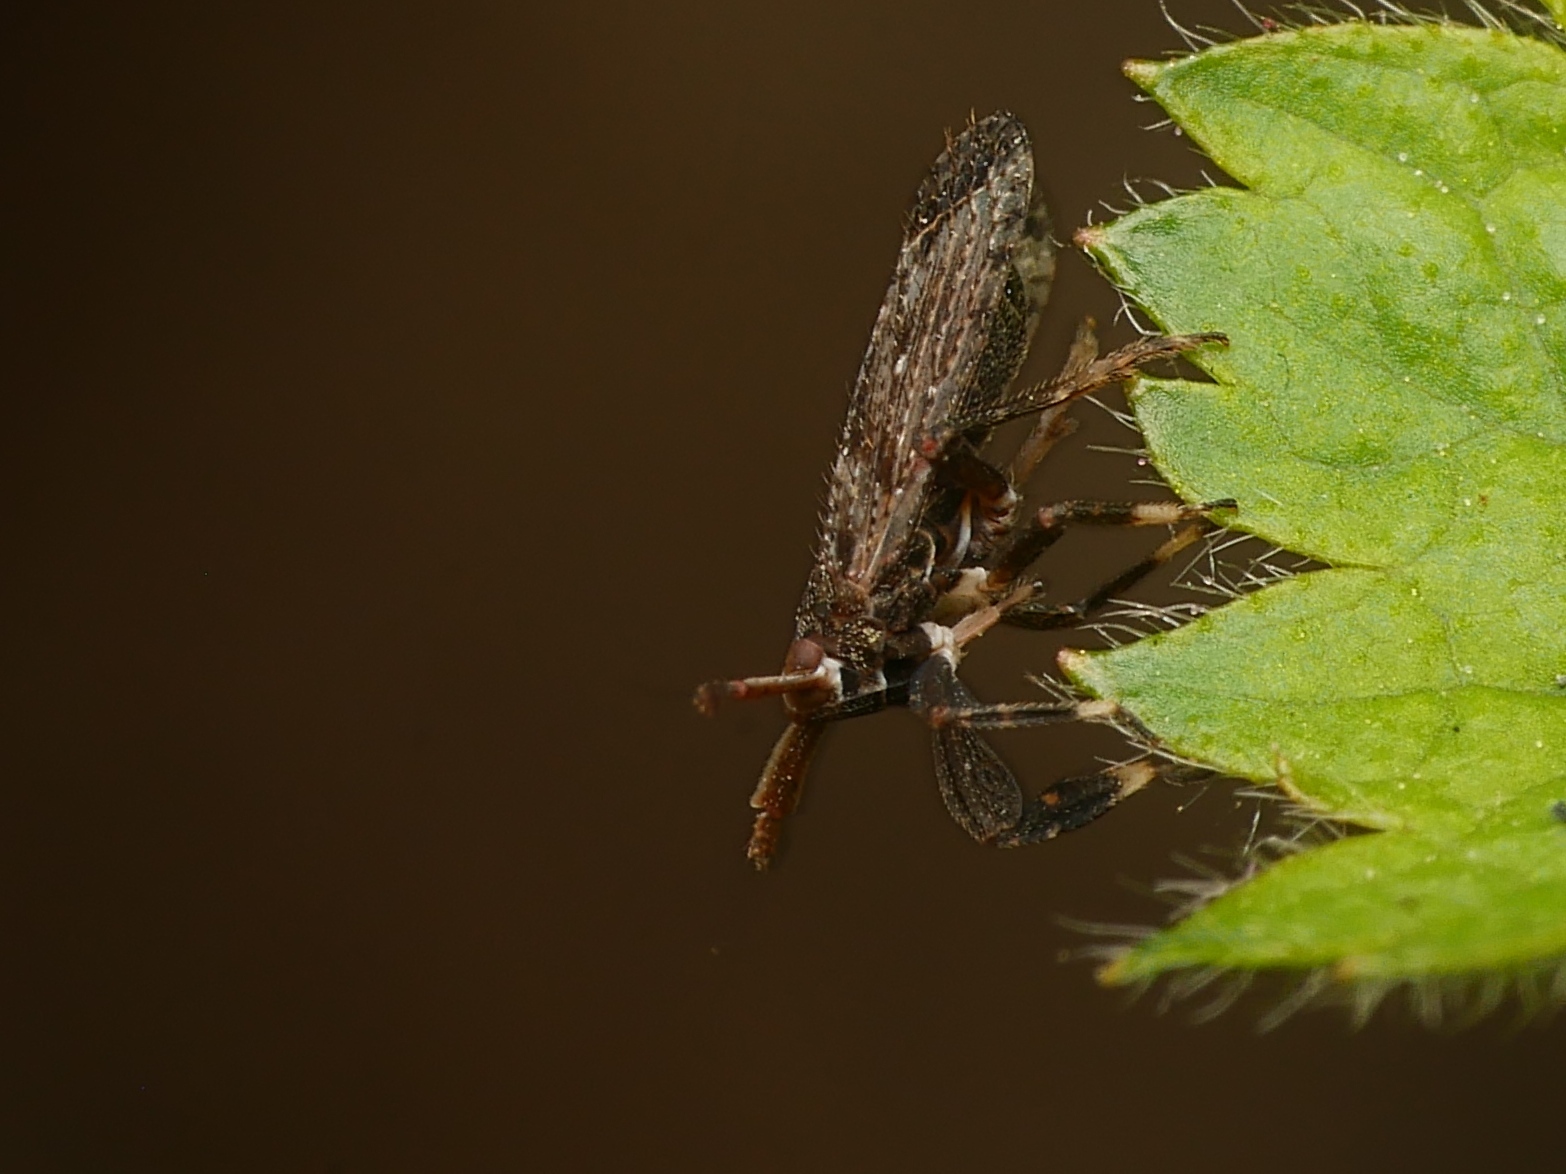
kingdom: Animalia
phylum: Arthropoda
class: Insecta
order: Hemiptera
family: Delphacidae
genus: Asiraca
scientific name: Asiraca clavicornis
